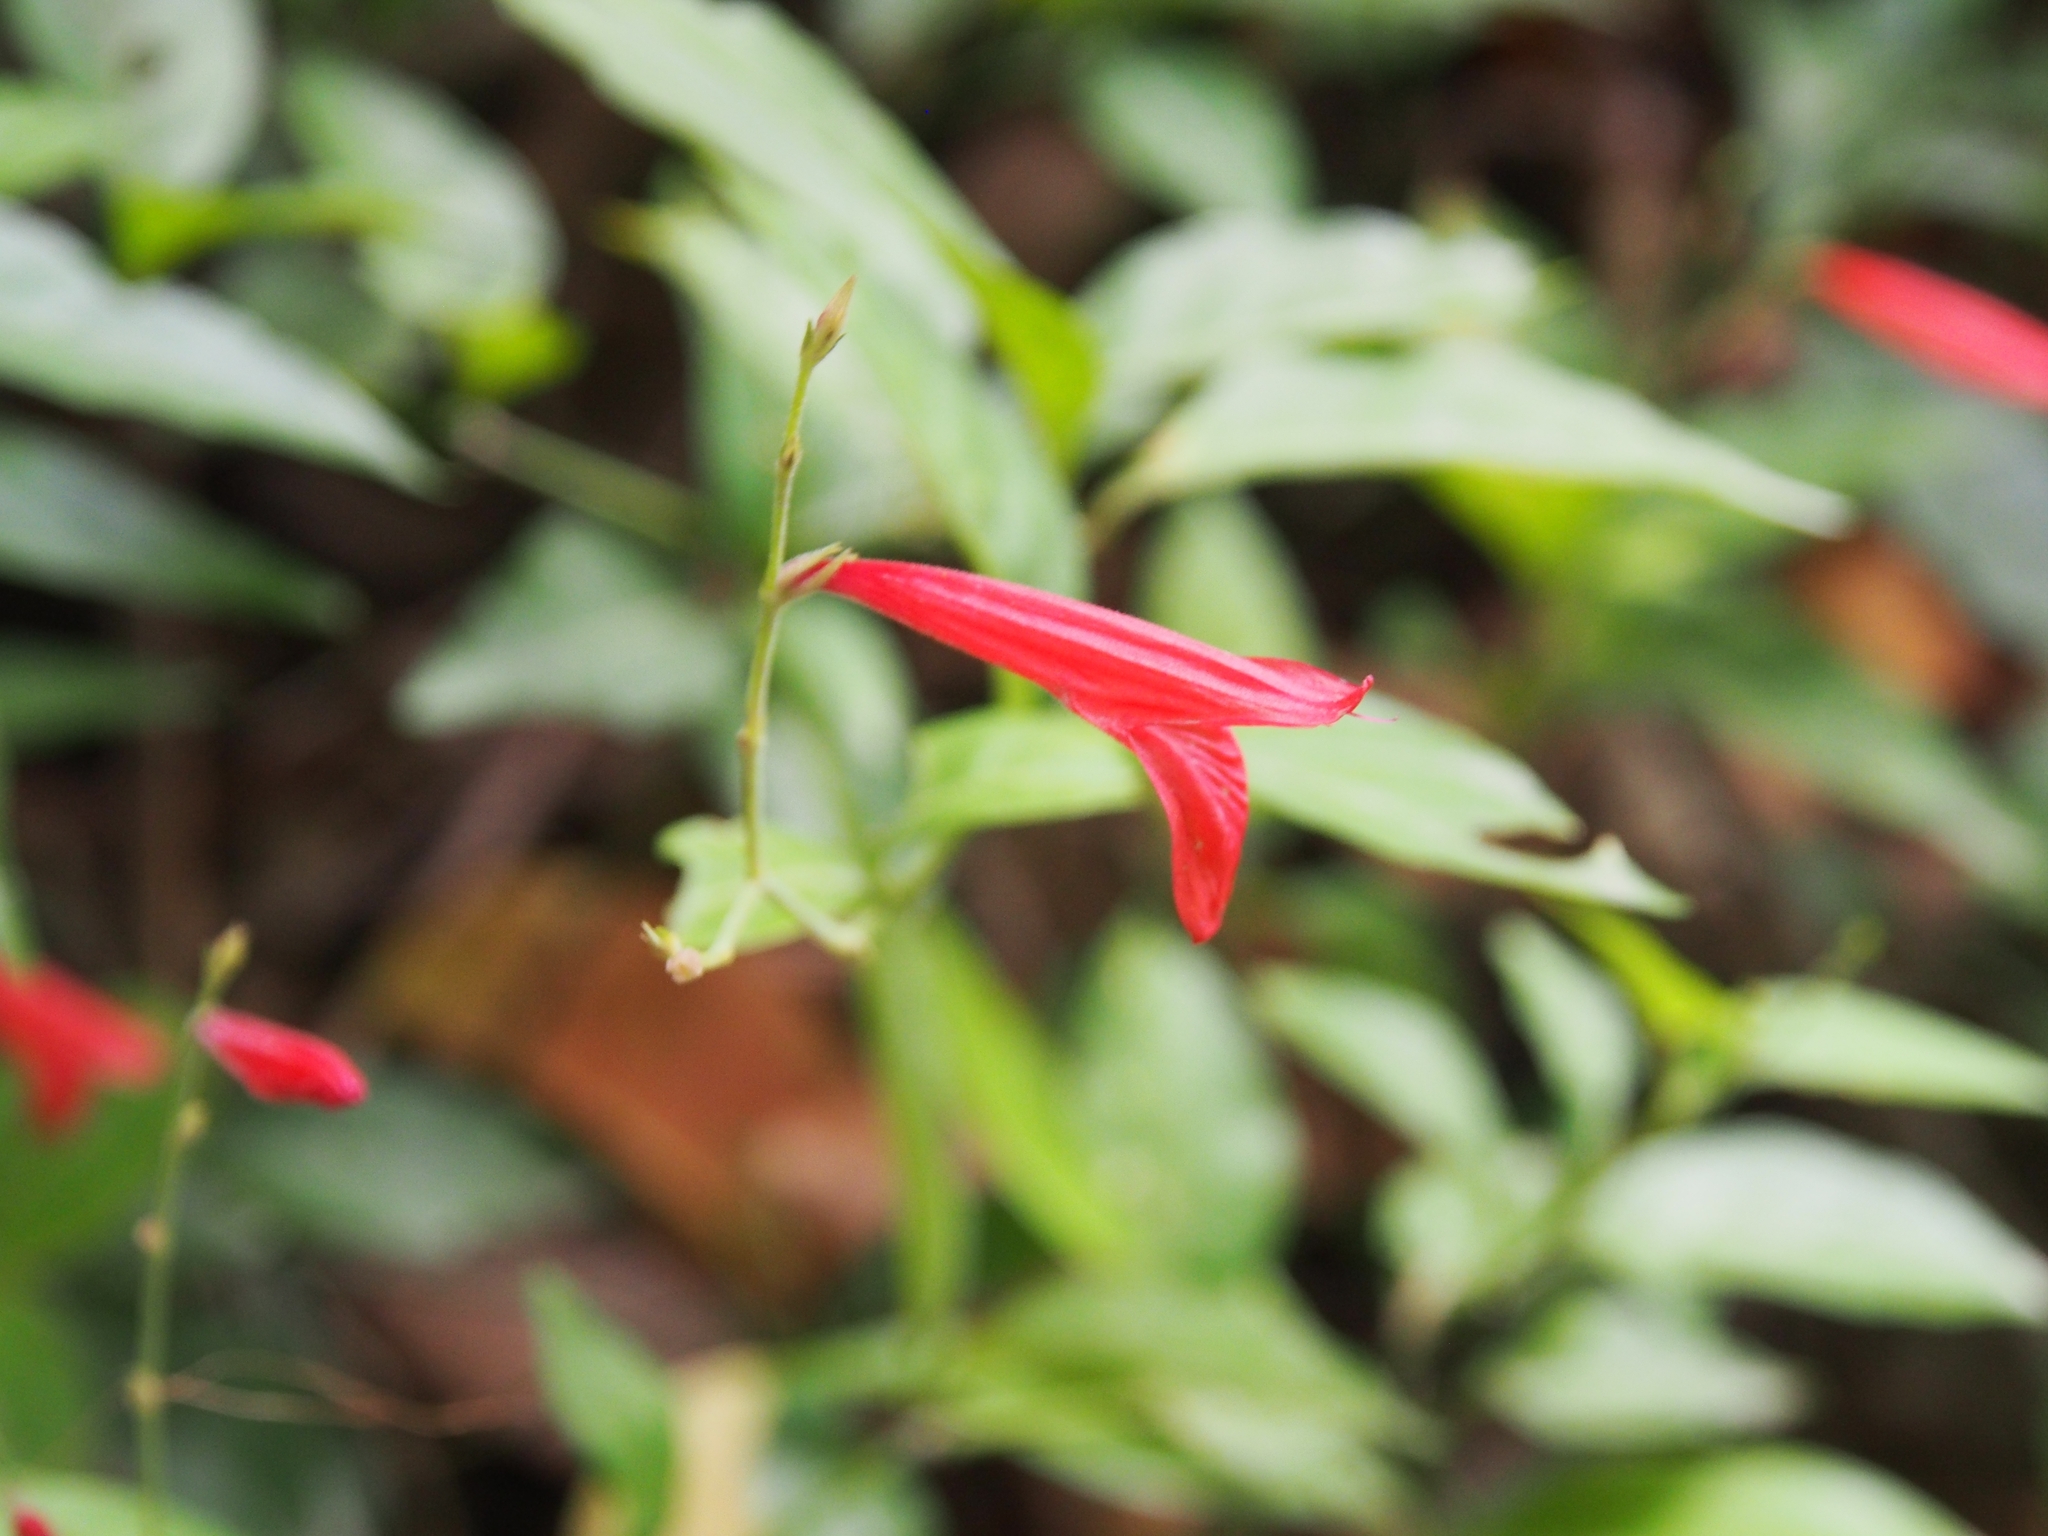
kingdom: Plantae
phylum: Tracheophyta
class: Magnoliopsida
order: Lamiales
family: Acanthaceae
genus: Ruellia
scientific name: Ruellia brevifolia
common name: Tropical wild petunia
